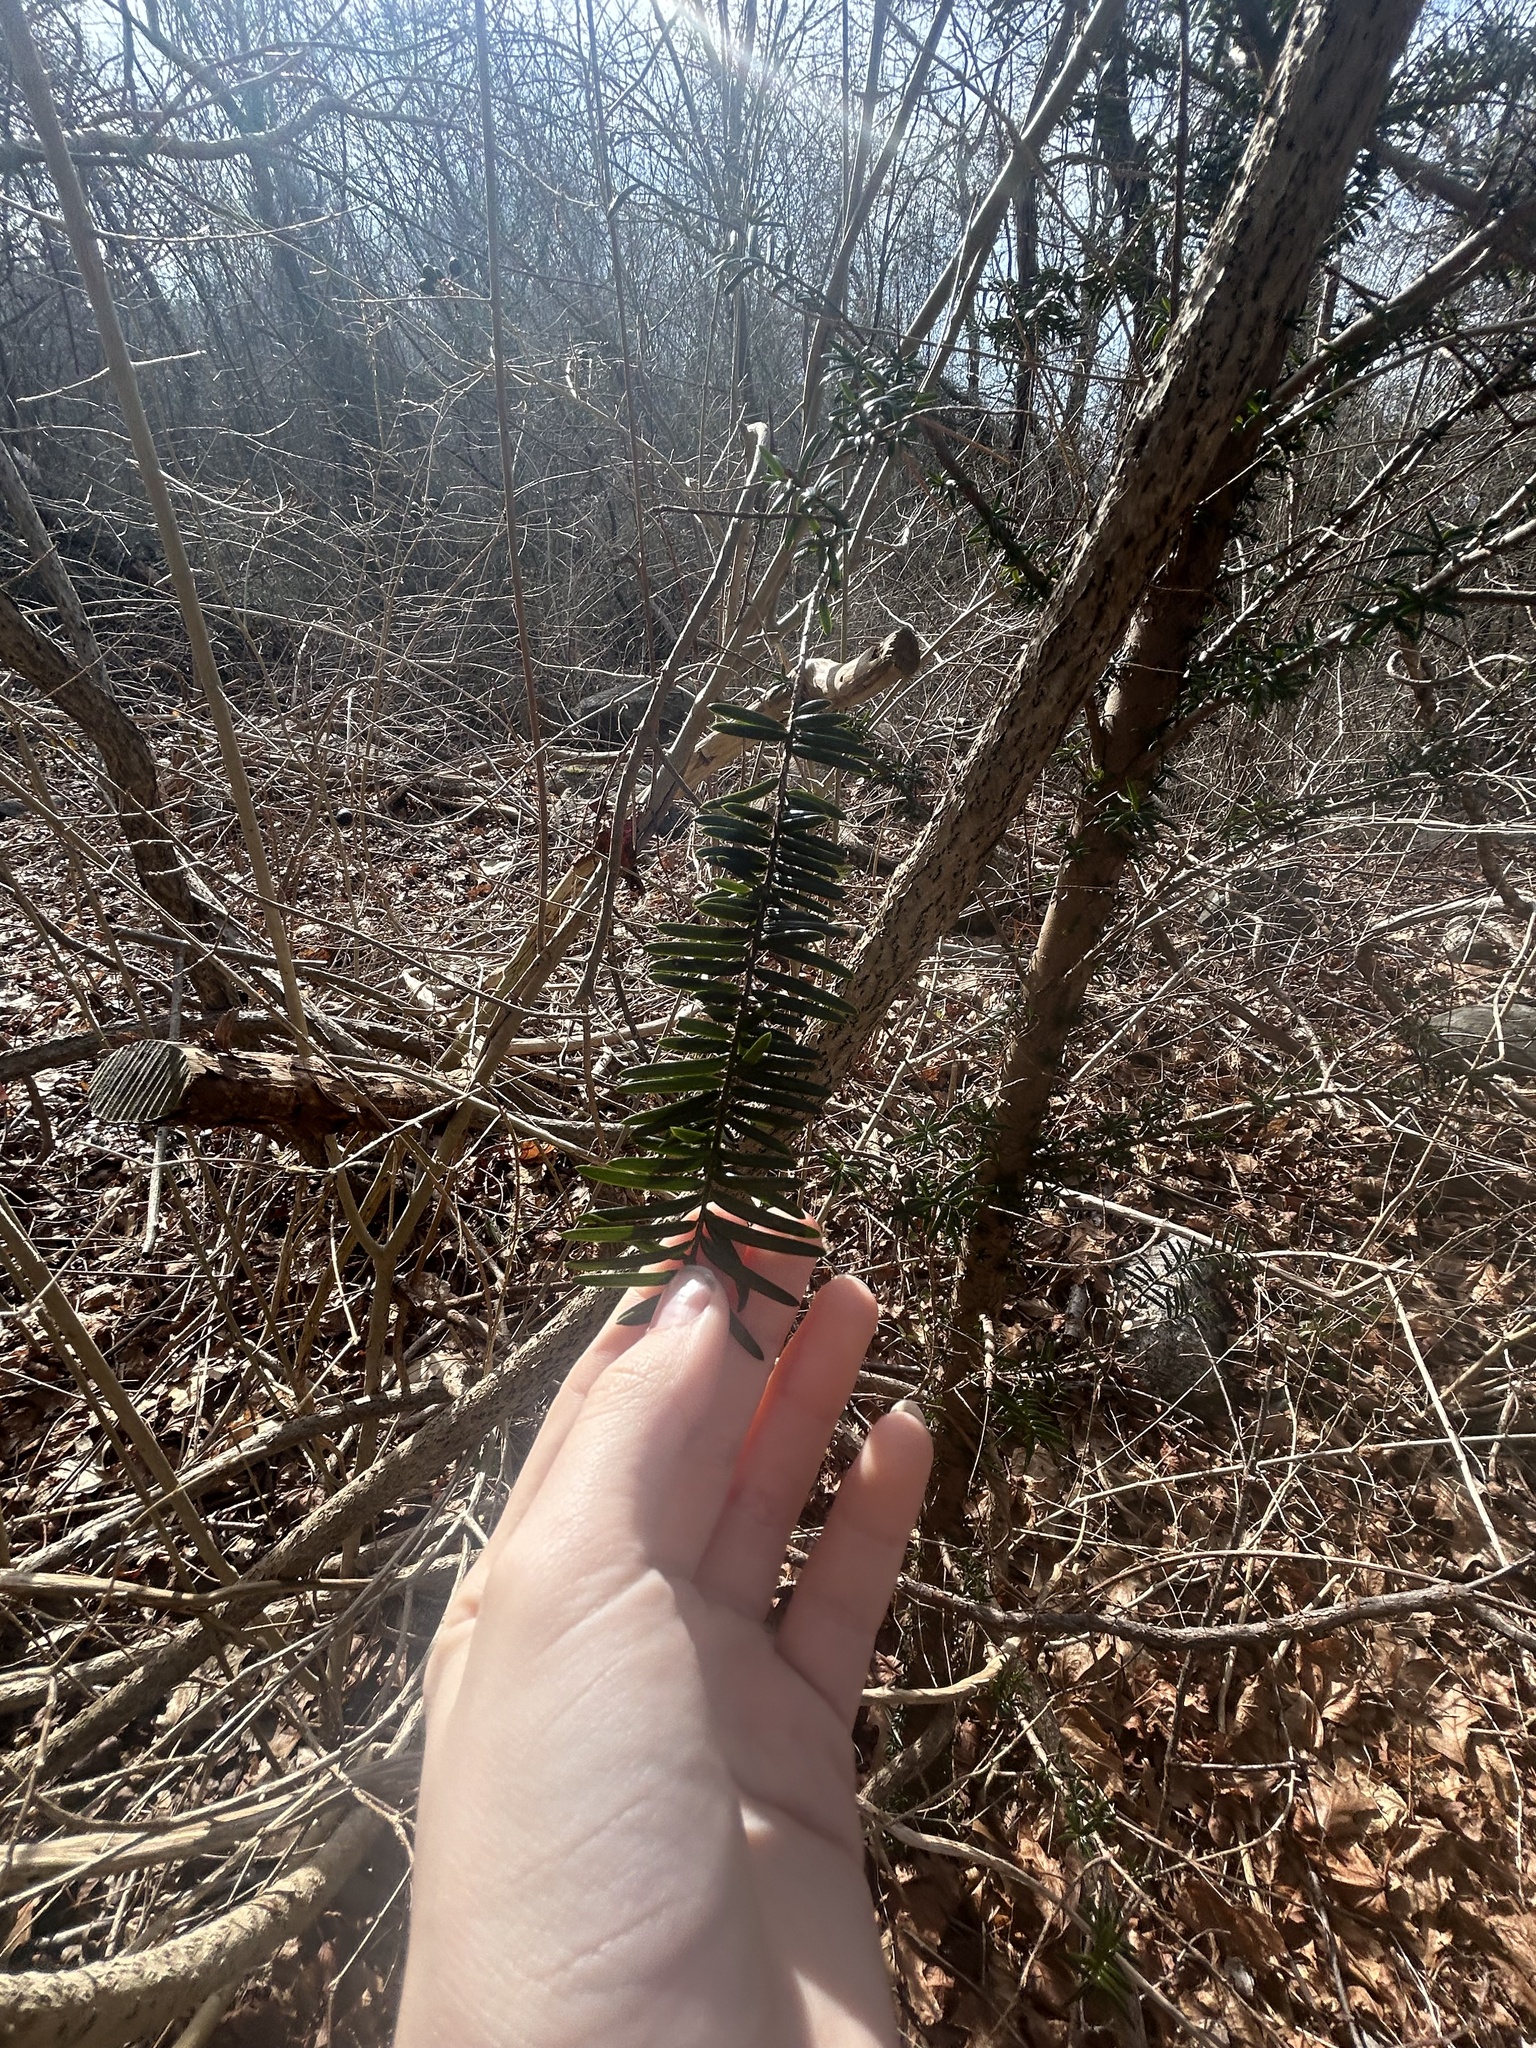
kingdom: Plantae
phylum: Tracheophyta
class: Pinopsida
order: Pinales
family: Taxaceae
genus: Taxus
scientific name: Taxus cuspidata
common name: Japanese yew
